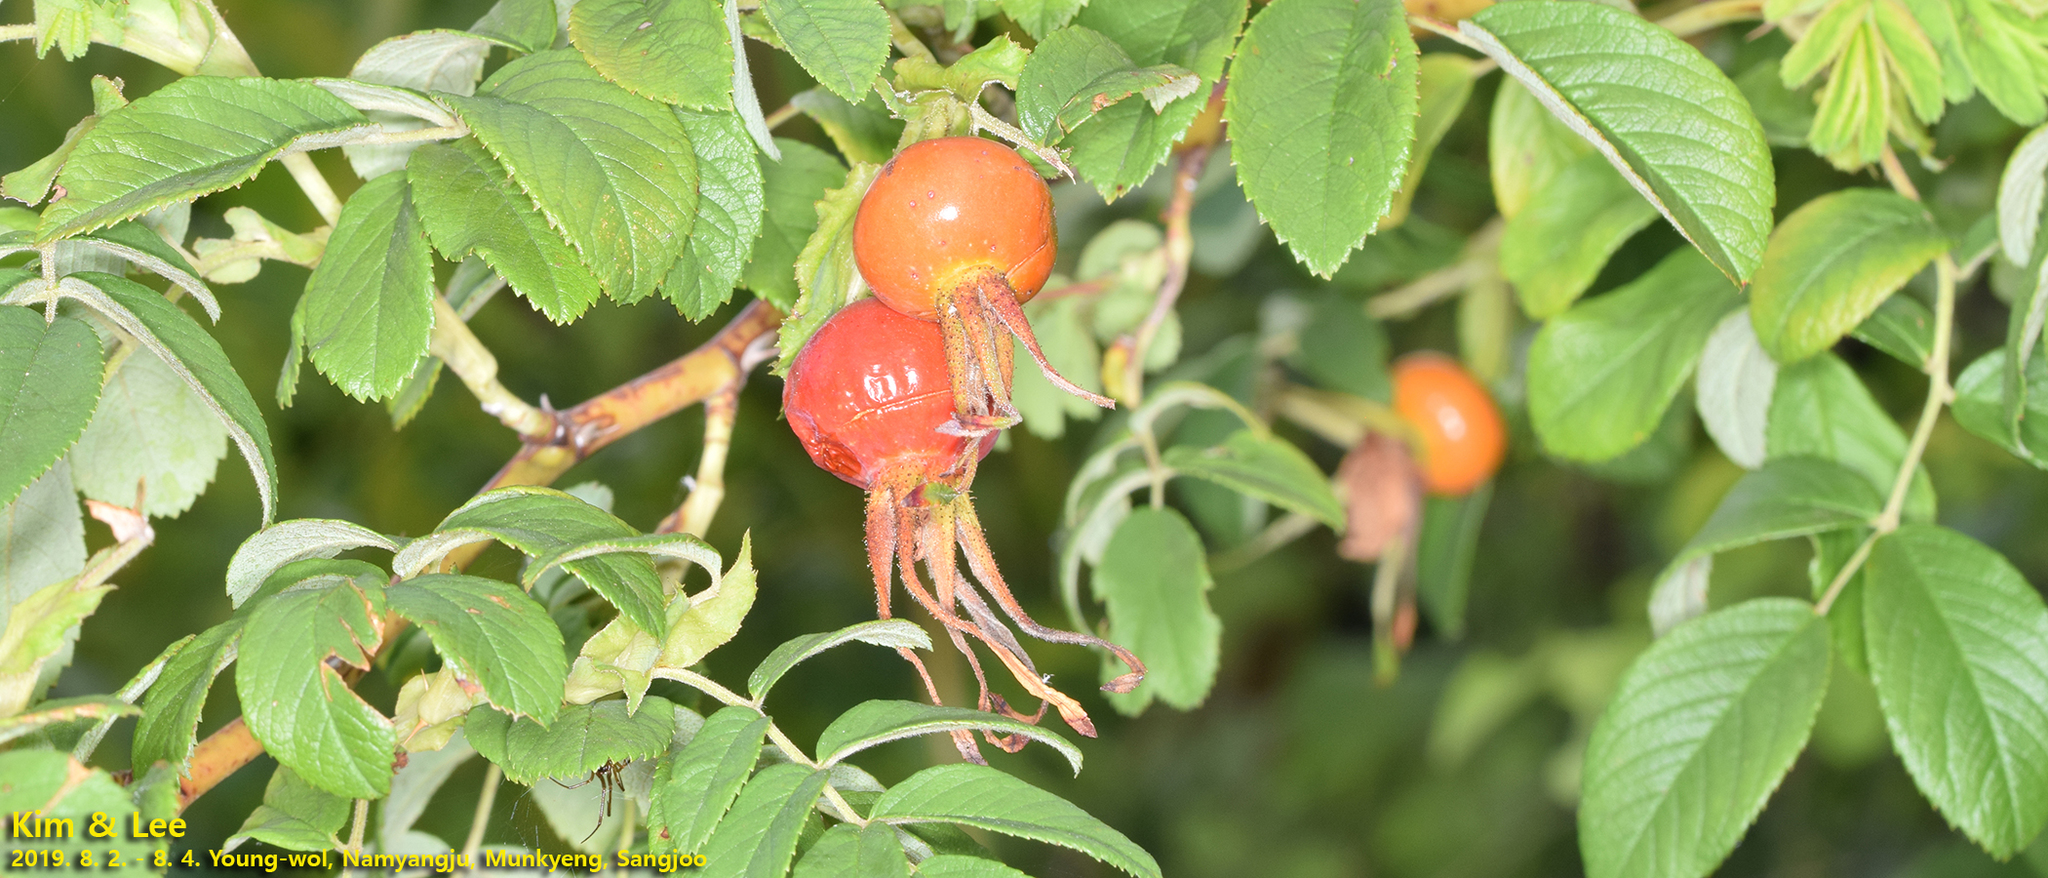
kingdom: Plantae
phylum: Tracheophyta
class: Magnoliopsida
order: Rosales
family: Rosaceae
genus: Rosa
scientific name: Rosa rugosa
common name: Japanese rose
